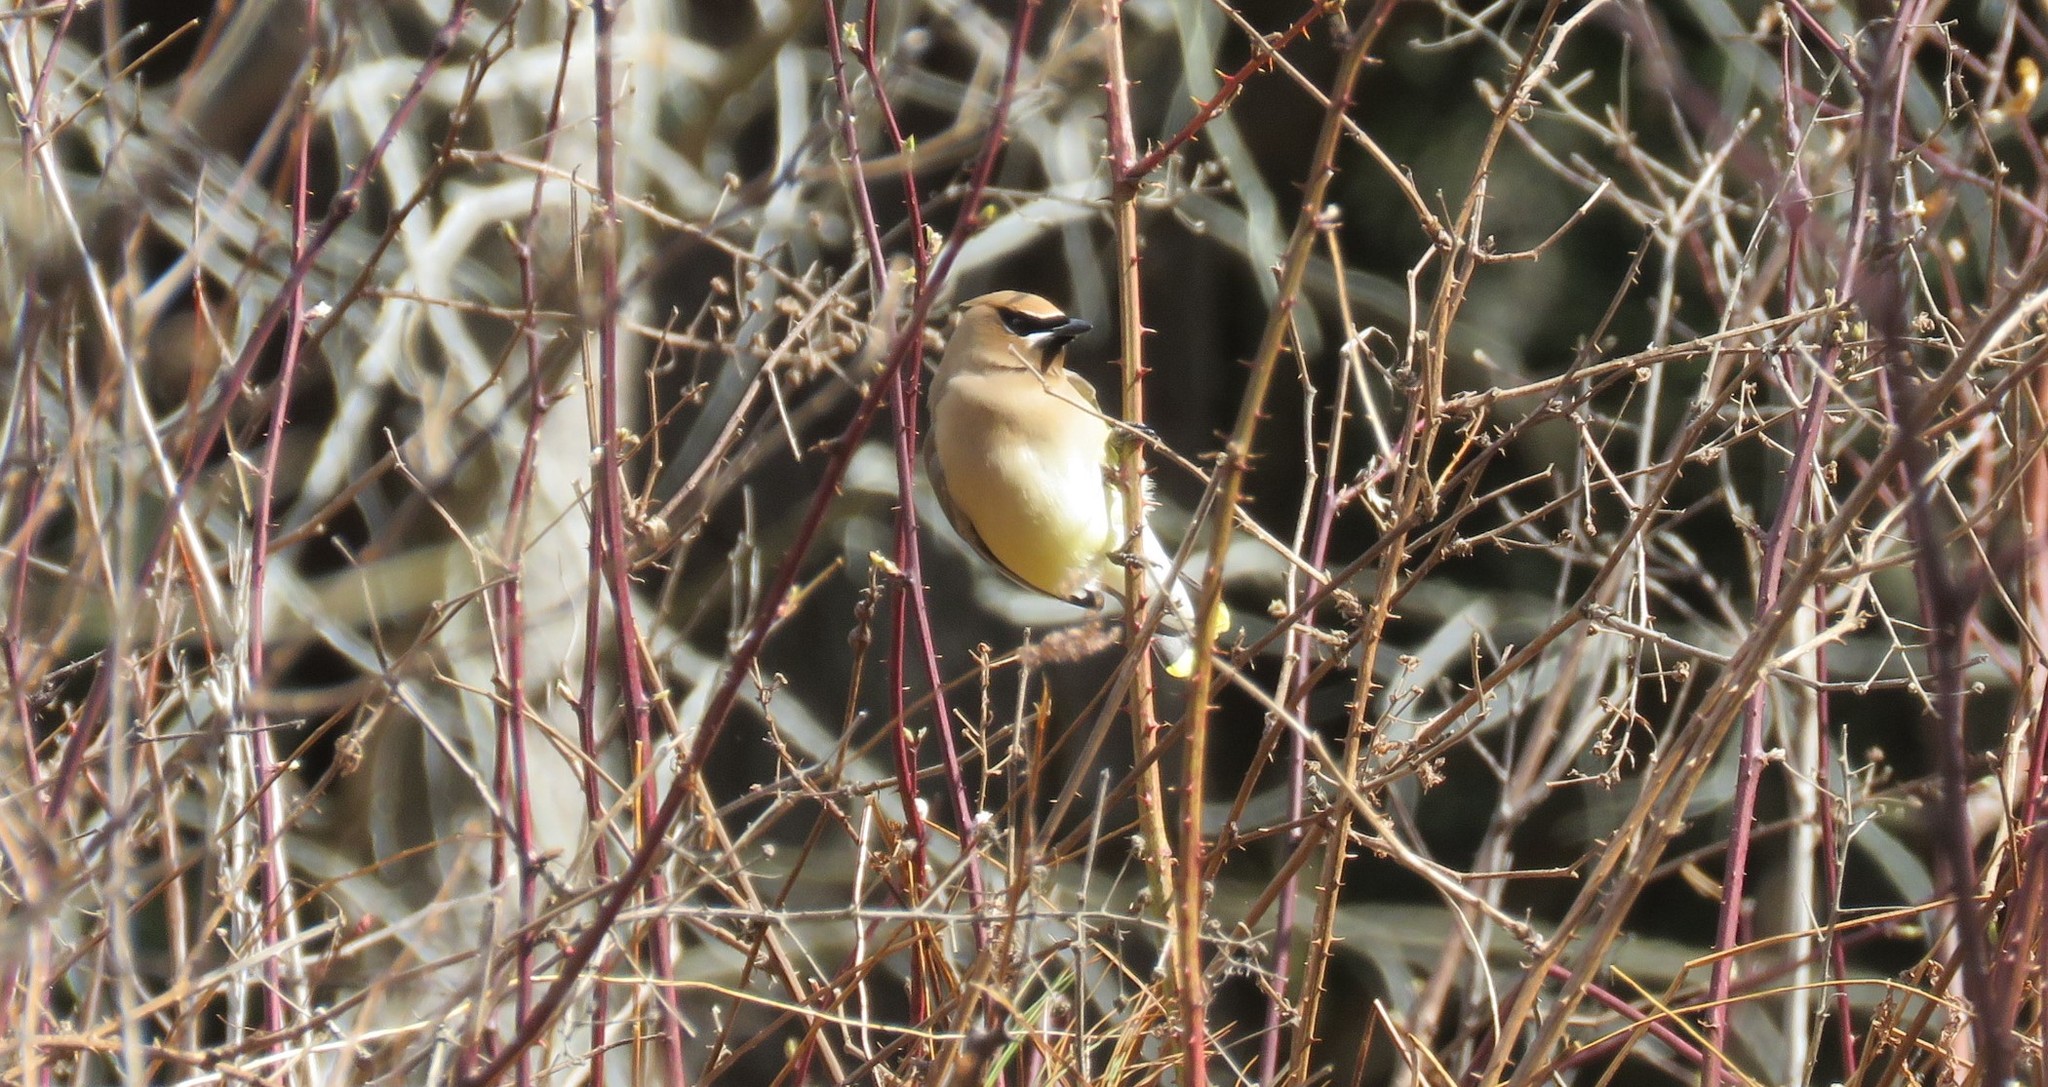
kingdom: Animalia
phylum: Chordata
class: Aves
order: Passeriformes
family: Bombycillidae
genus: Bombycilla
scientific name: Bombycilla cedrorum
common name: Cedar waxwing
